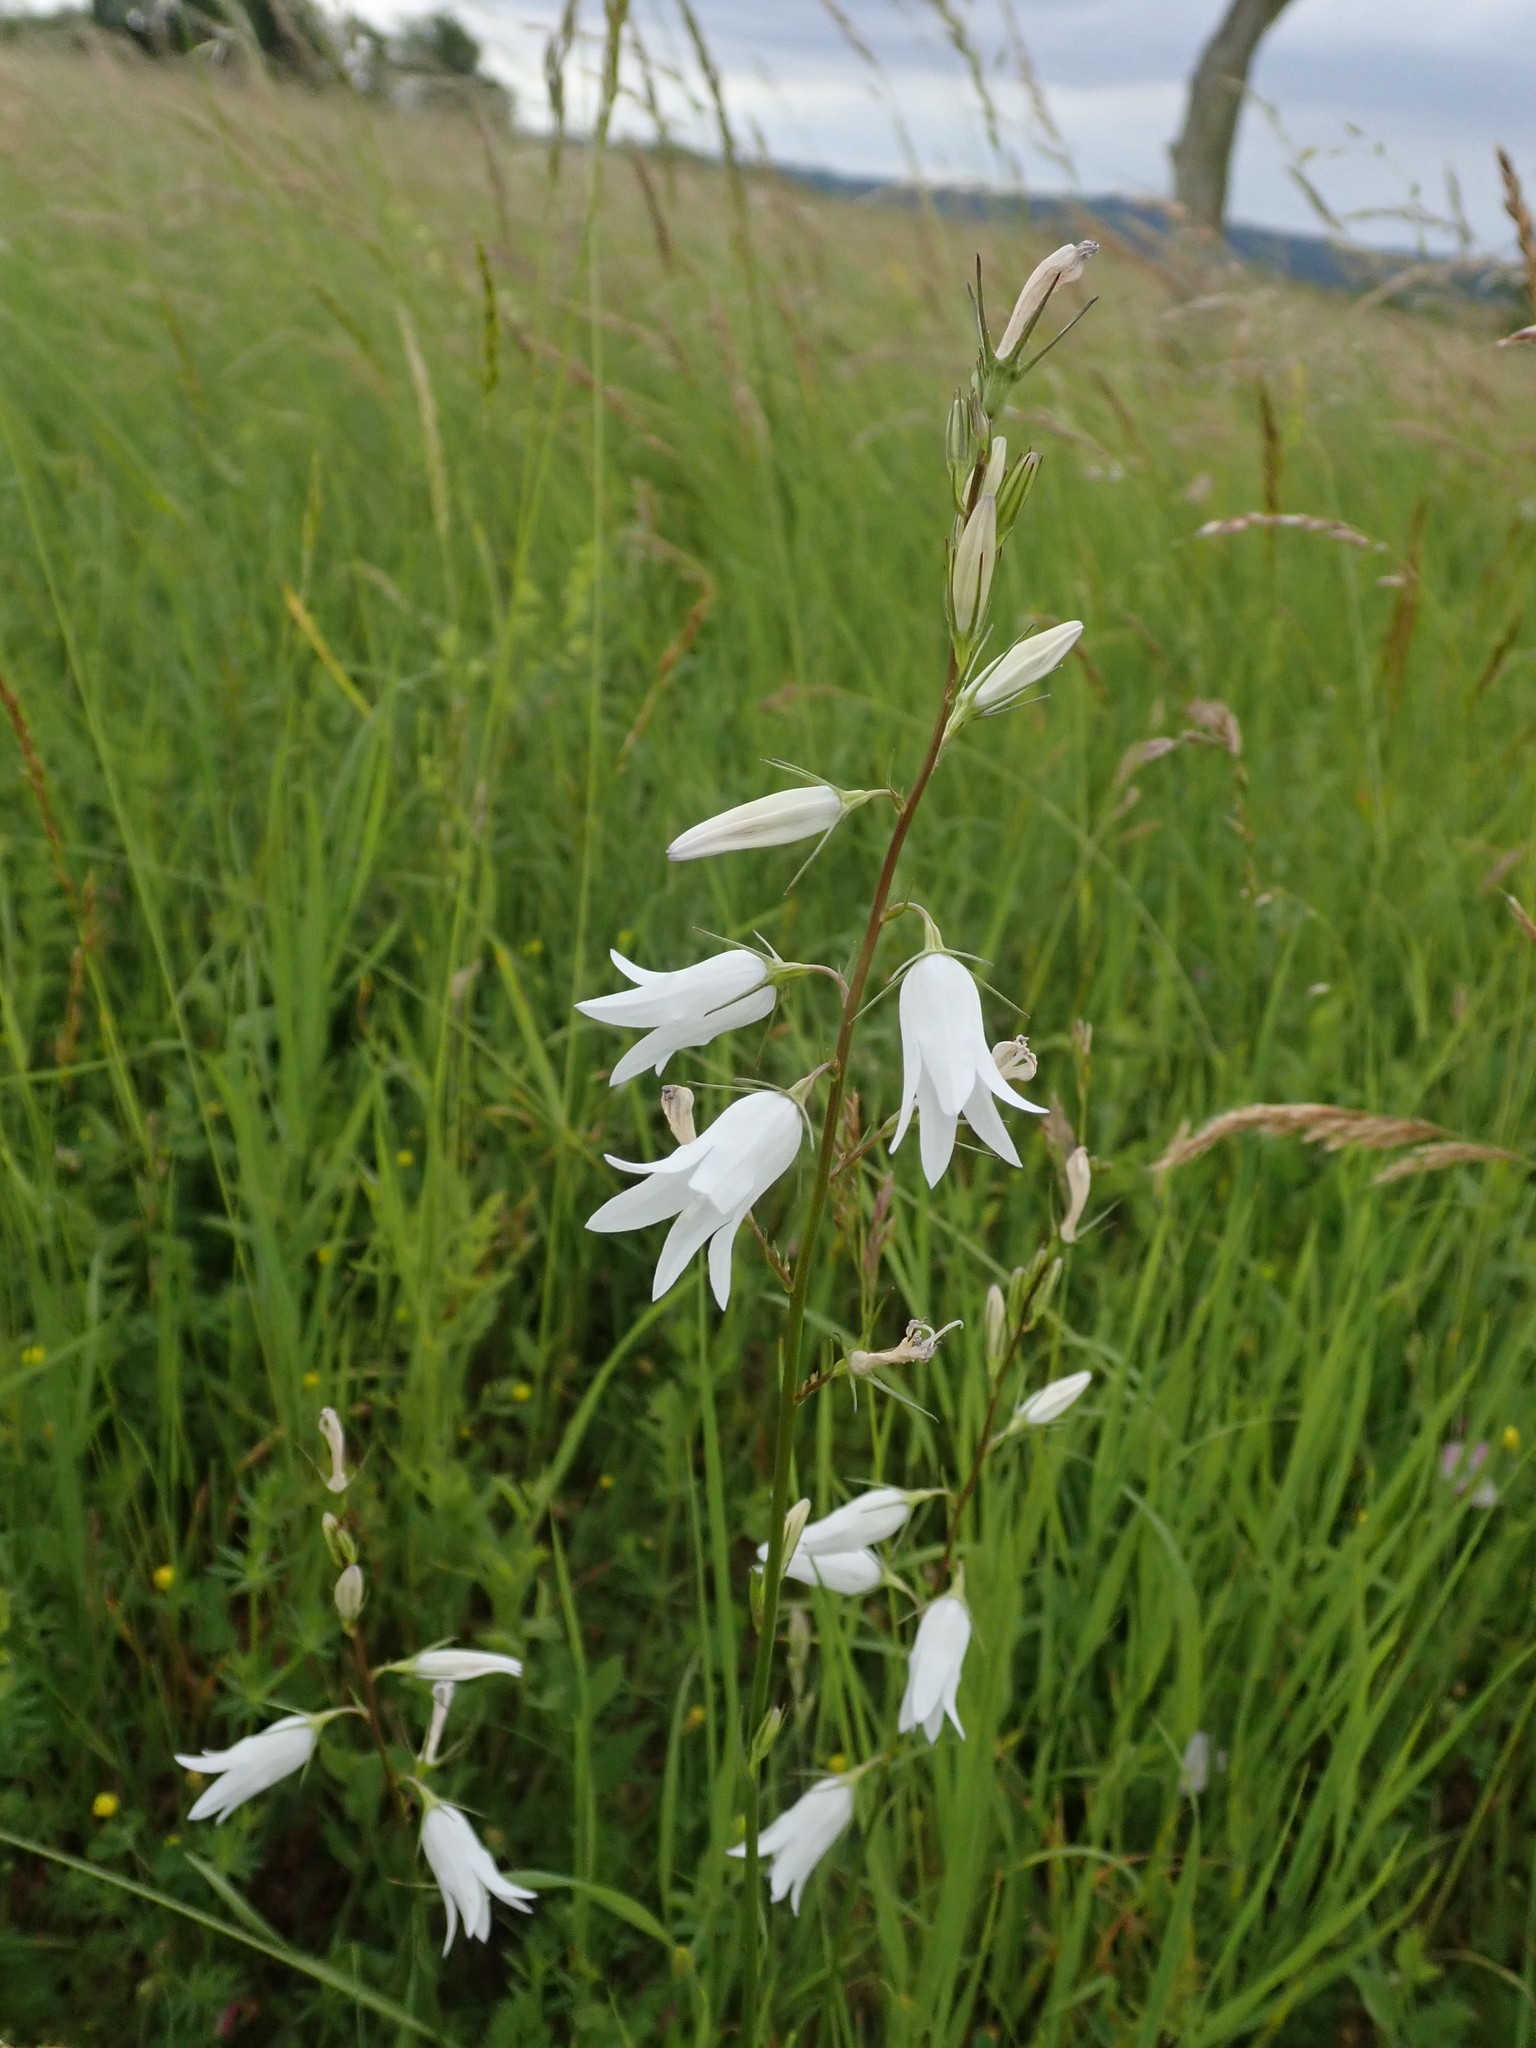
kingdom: Plantae
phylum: Tracheophyta
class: Magnoliopsida
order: Asterales
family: Campanulaceae
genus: Campanula
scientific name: Campanula rapunculus
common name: Rampion bellflower
